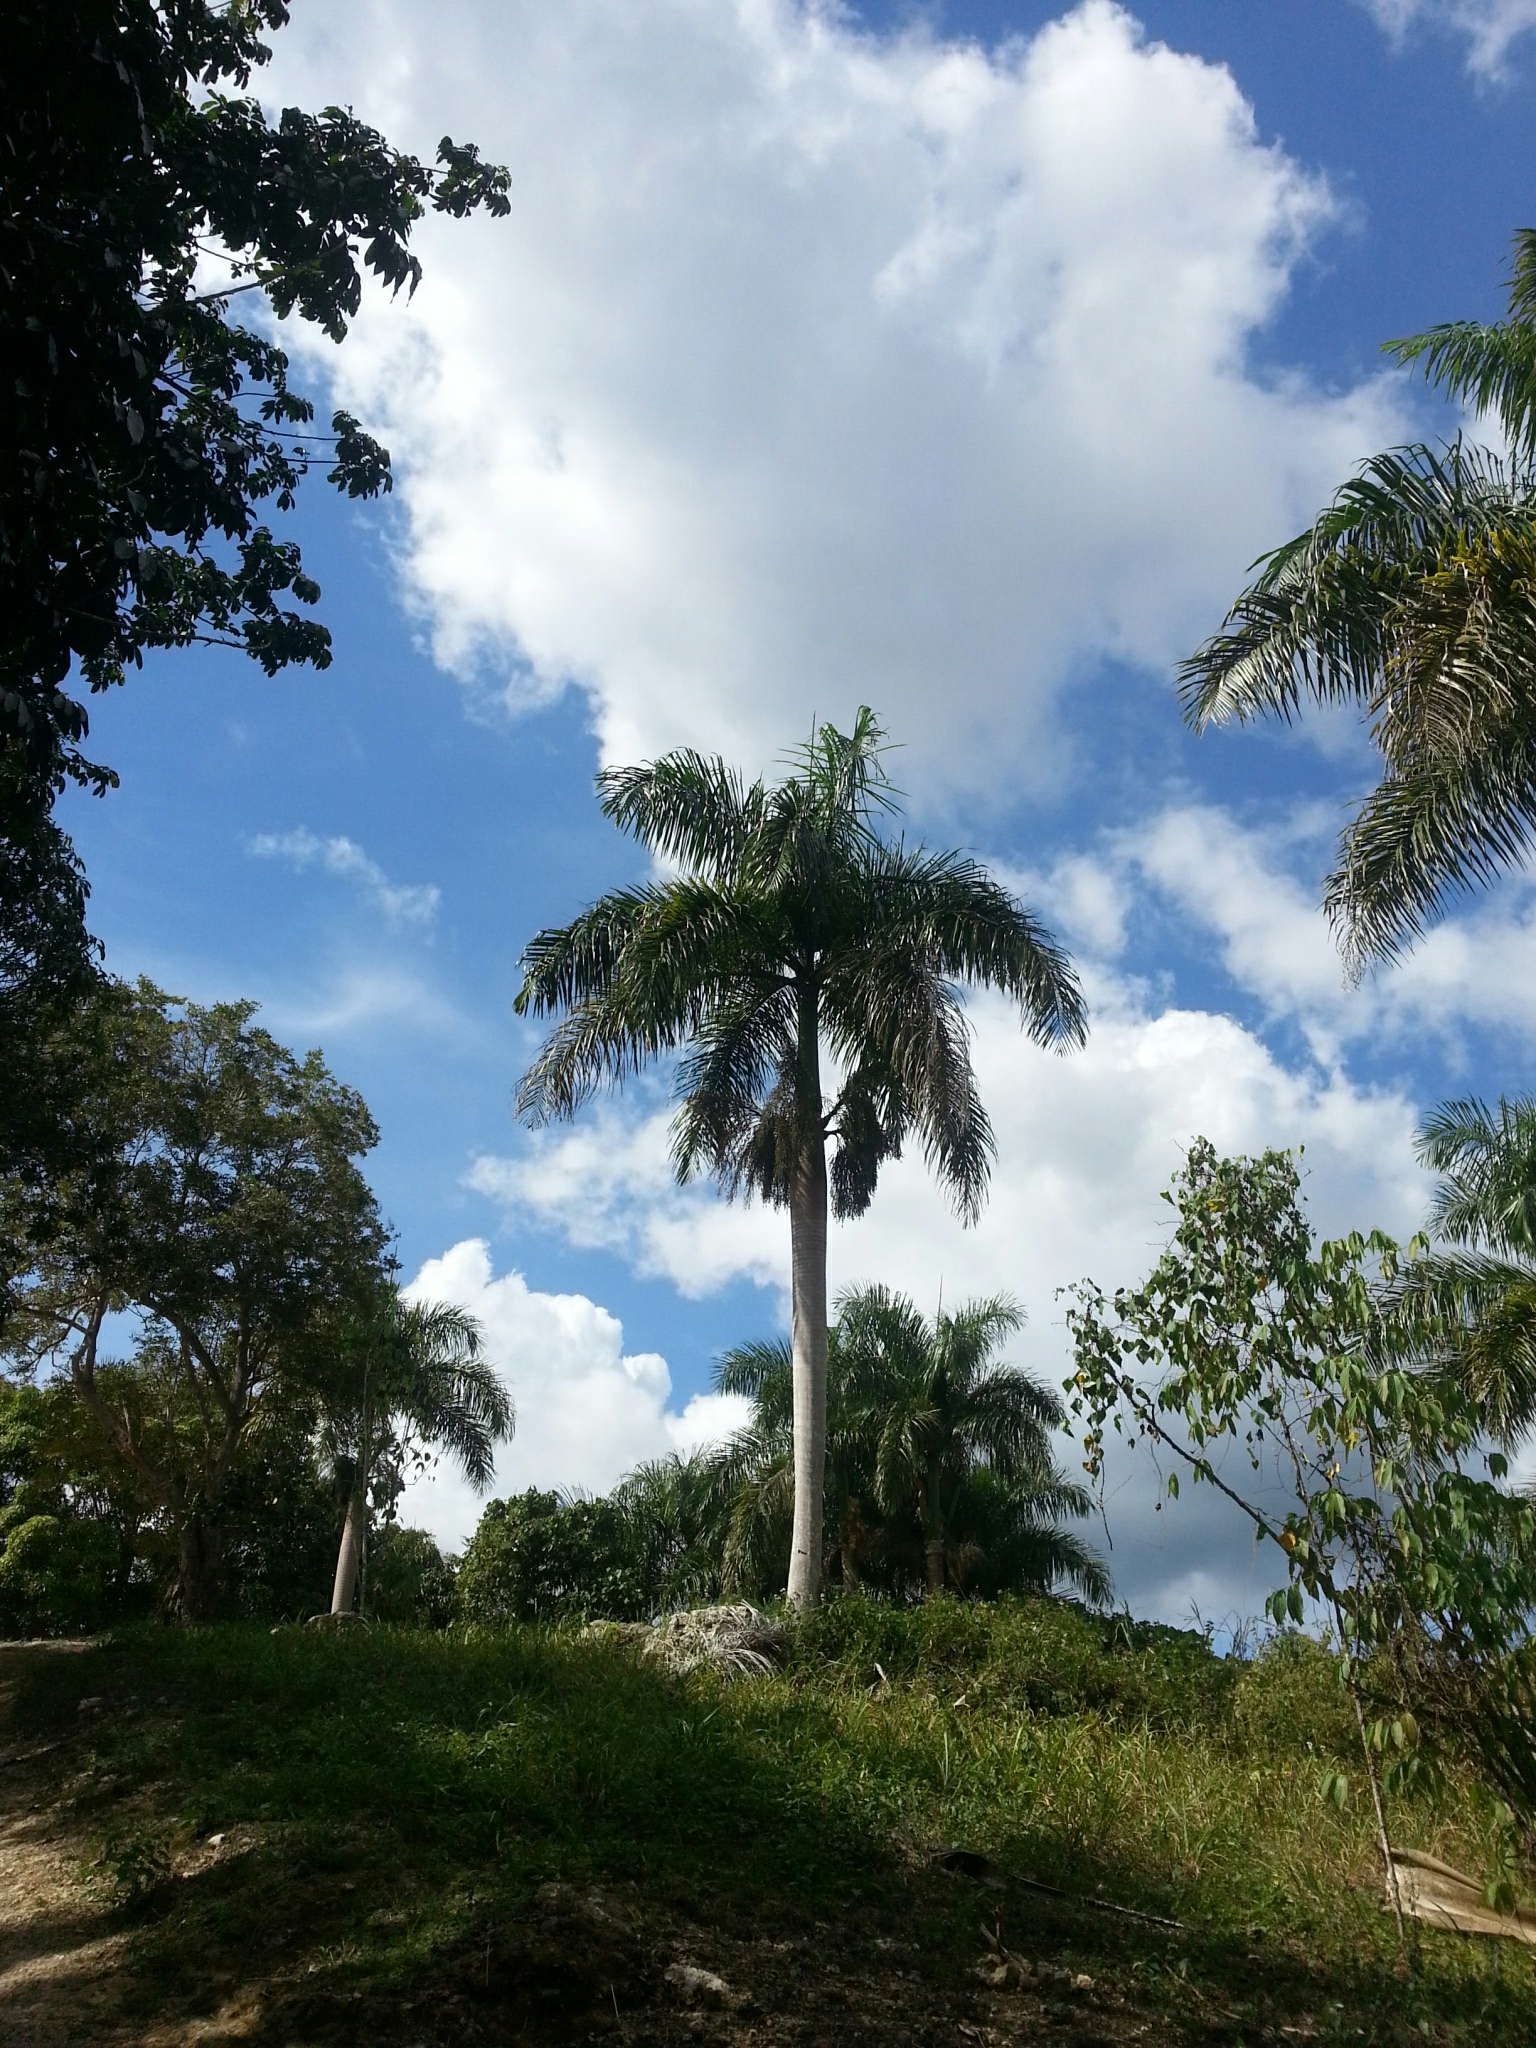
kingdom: Plantae
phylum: Tracheophyta
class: Liliopsida
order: Arecales
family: Arecaceae
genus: Roystonea
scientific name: Roystonea borinquena
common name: Puerto rican royal palm
